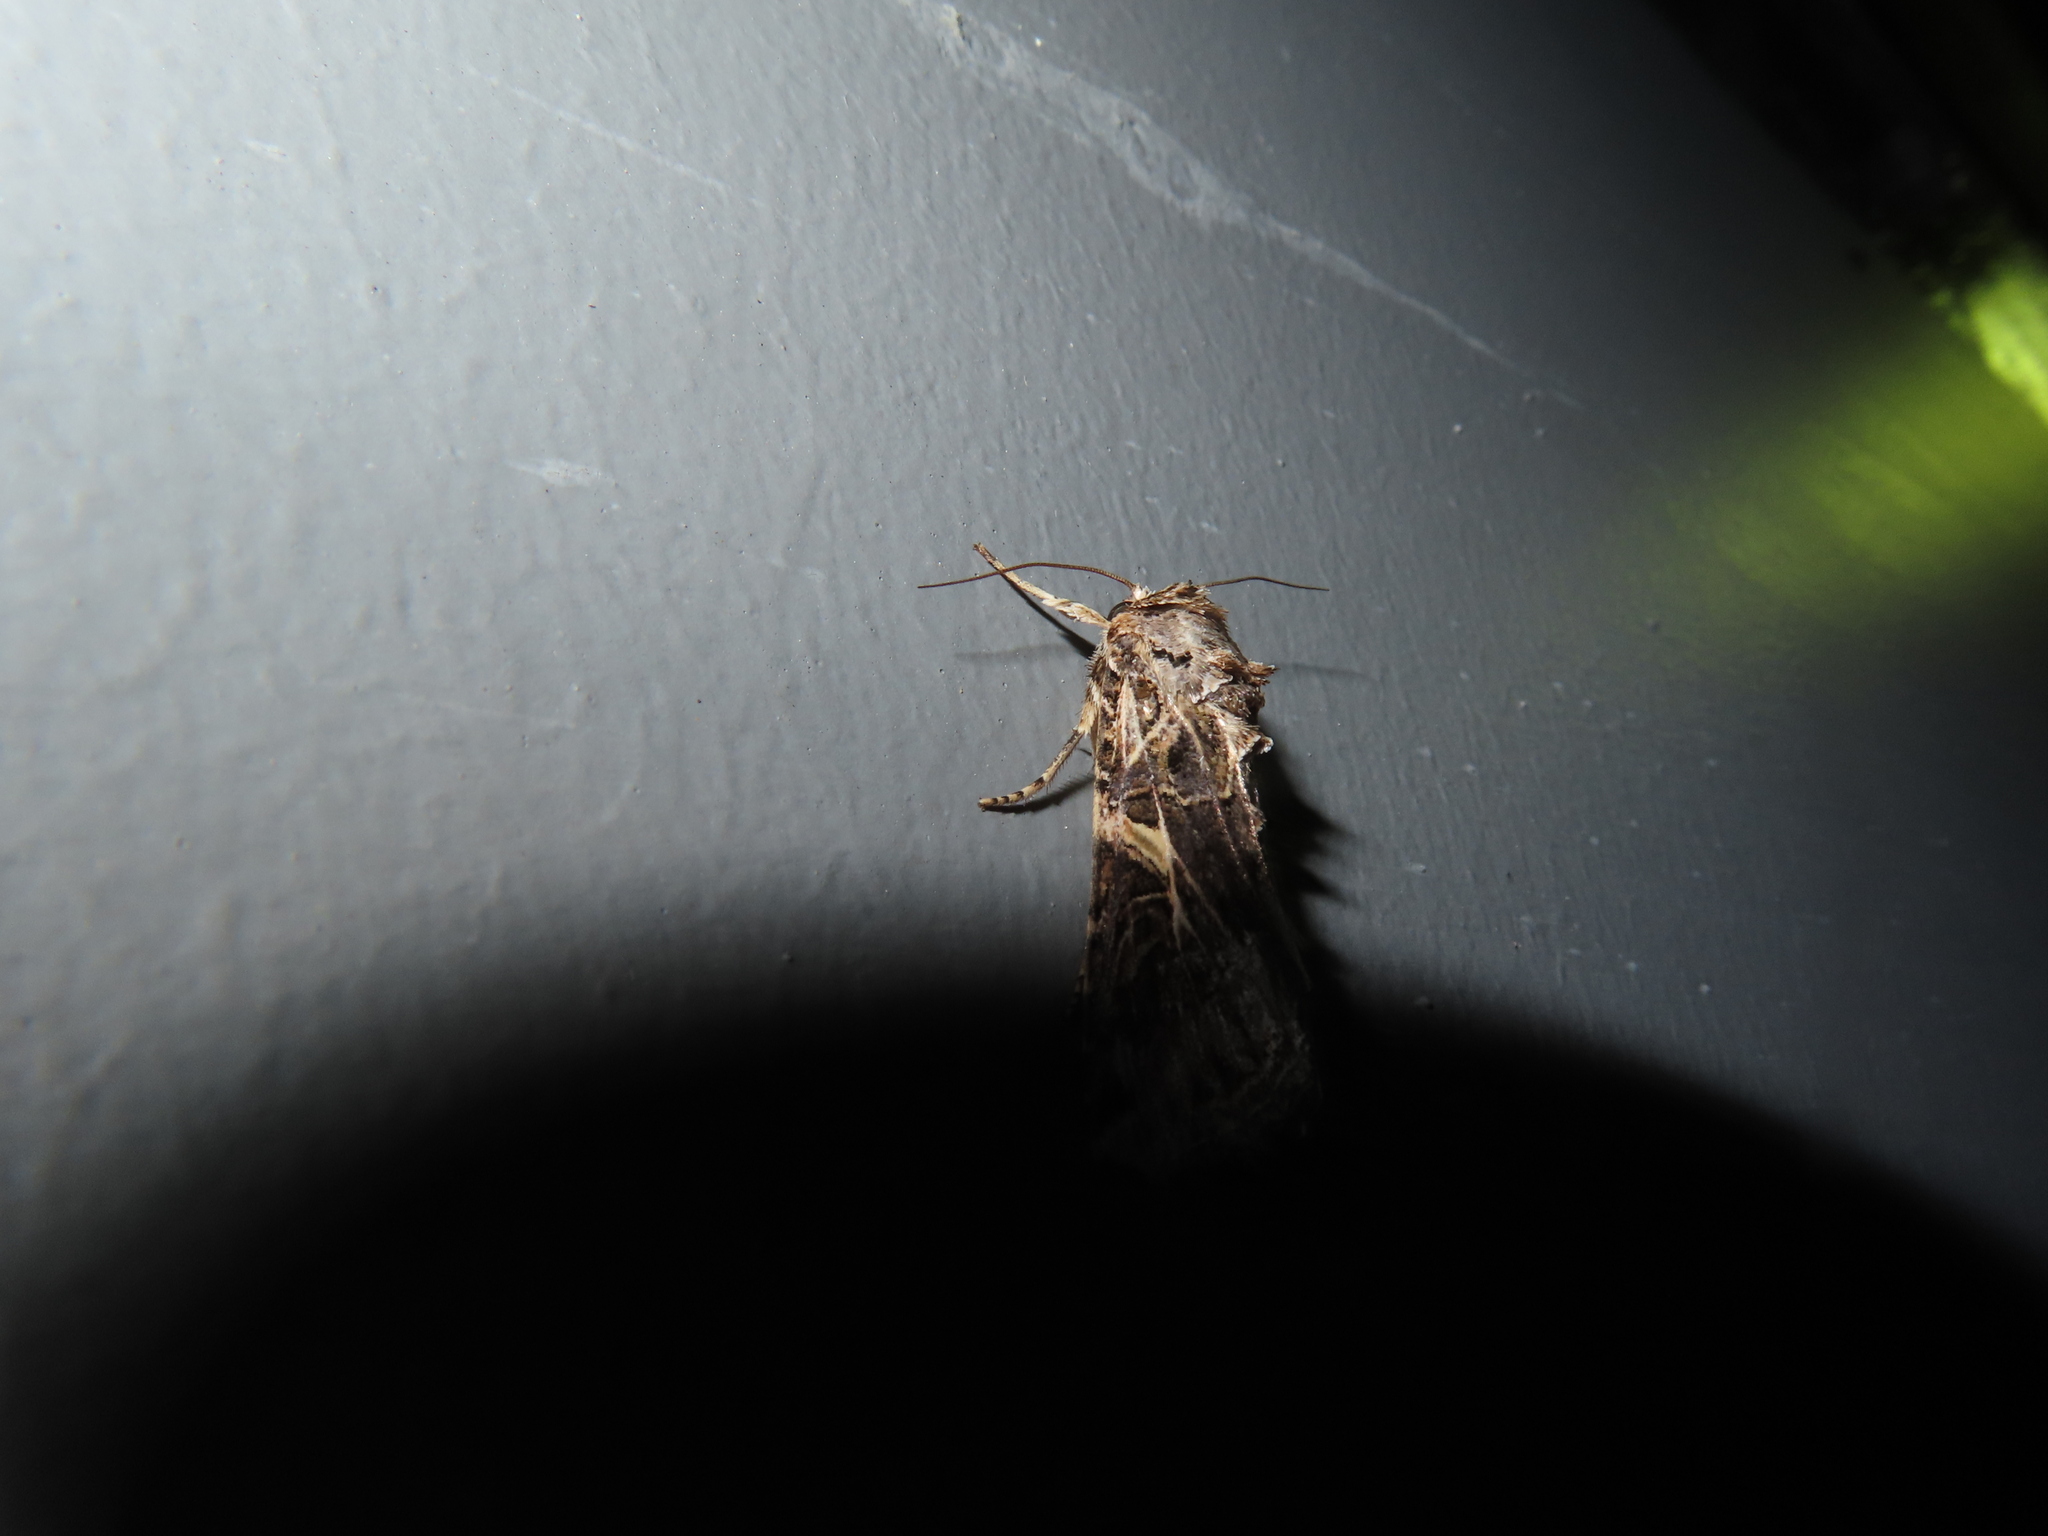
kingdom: Animalia
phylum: Arthropoda
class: Insecta
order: Lepidoptera
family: Noctuidae
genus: Spodoptera
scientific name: Spodoptera ornithogalli
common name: Yellow-striped armyworm
